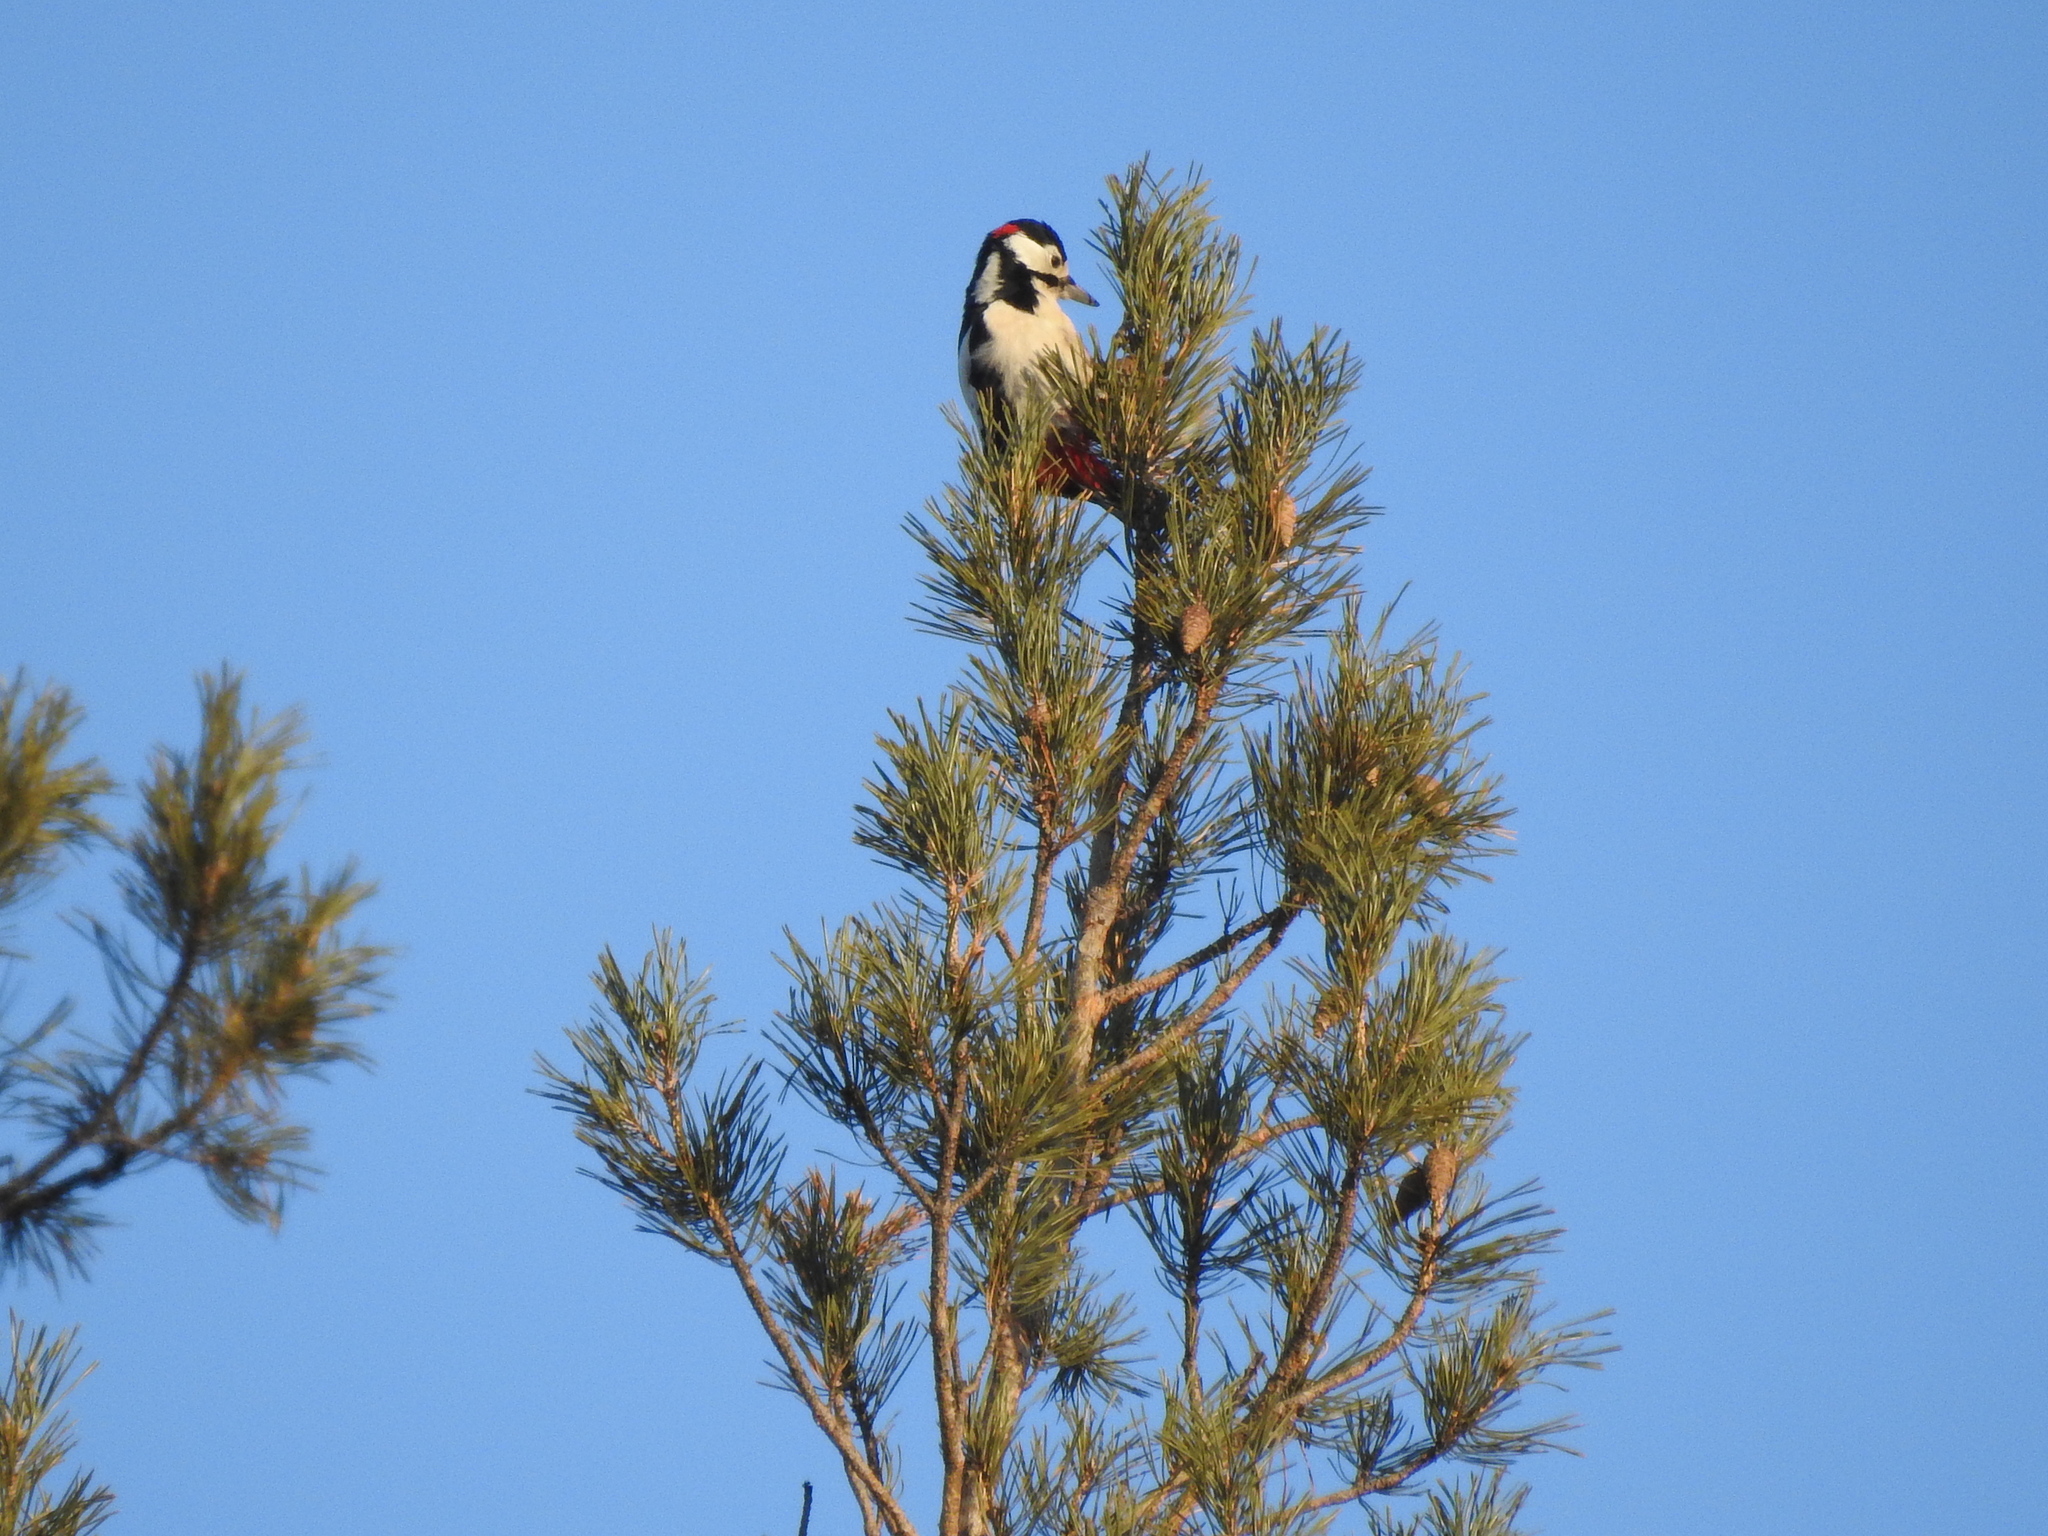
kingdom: Animalia
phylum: Chordata
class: Aves
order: Piciformes
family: Picidae
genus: Dendrocopos
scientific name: Dendrocopos major
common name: Great spotted woodpecker
